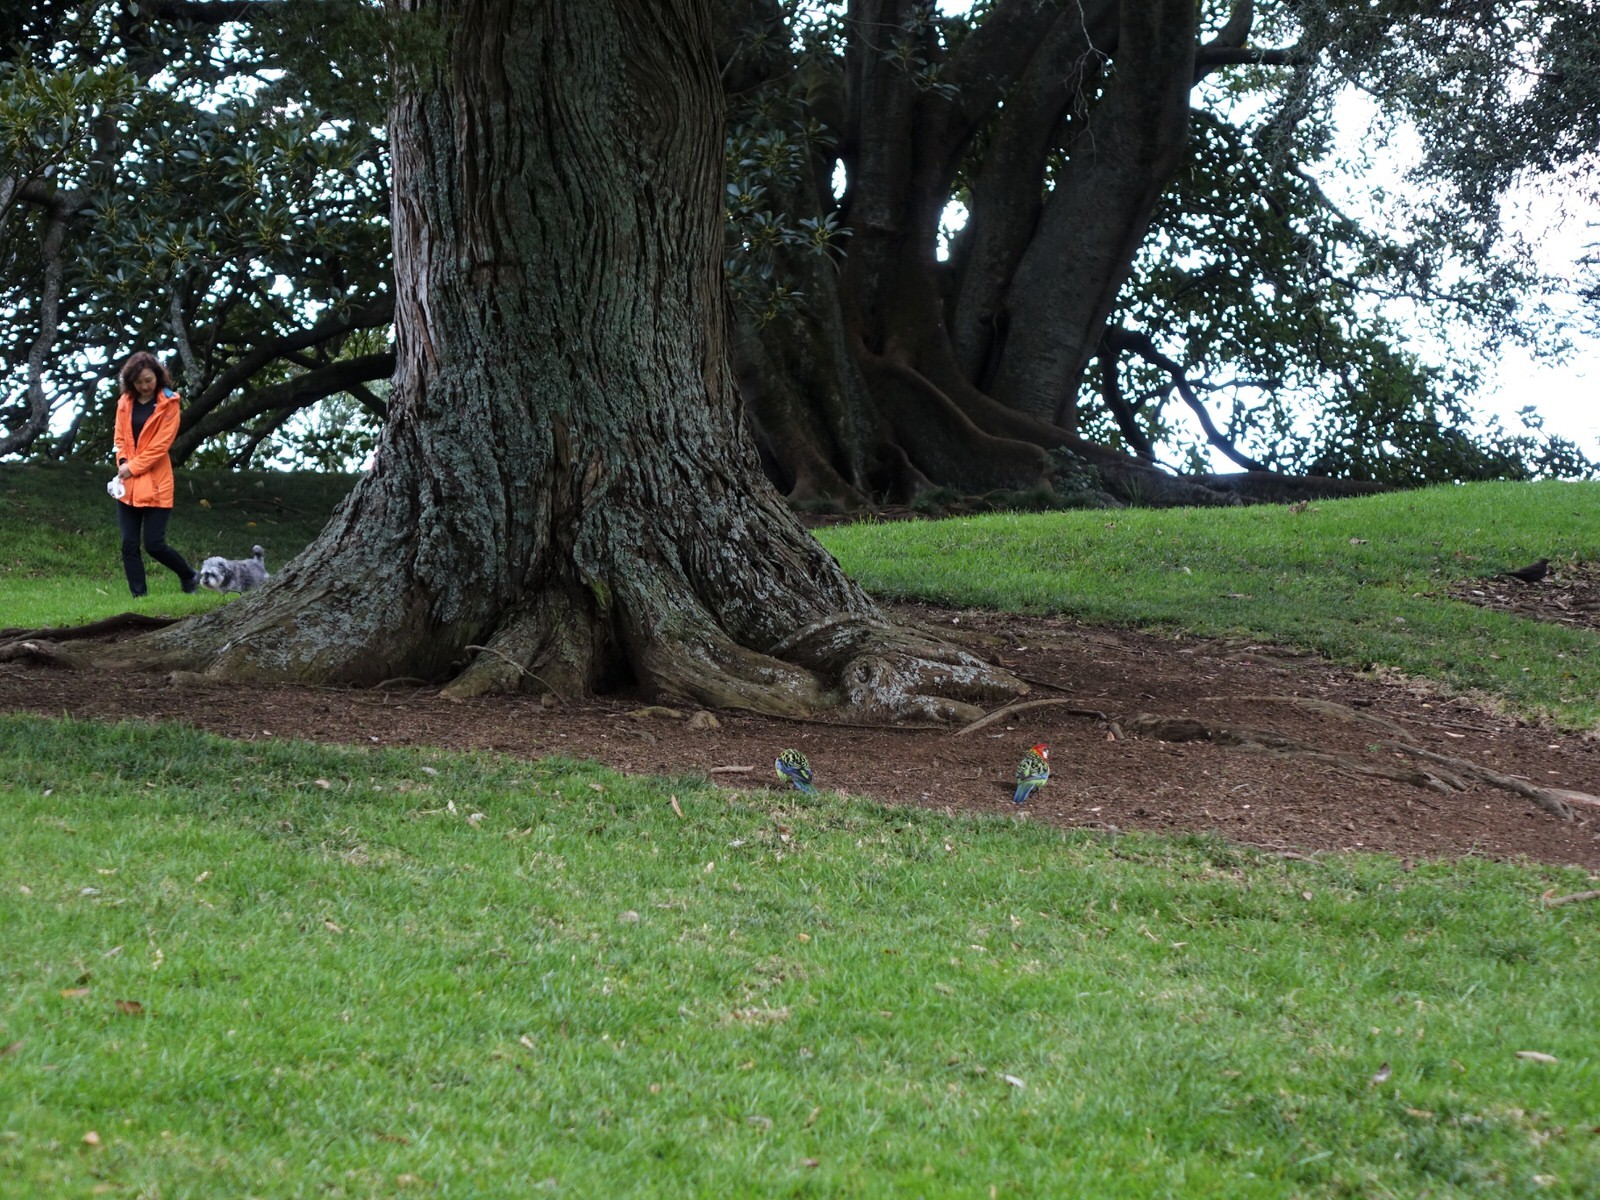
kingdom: Animalia
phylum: Chordata
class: Aves
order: Psittaciformes
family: Psittacidae
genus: Platycercus
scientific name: Platycercus eximius
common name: Eastern rosella
